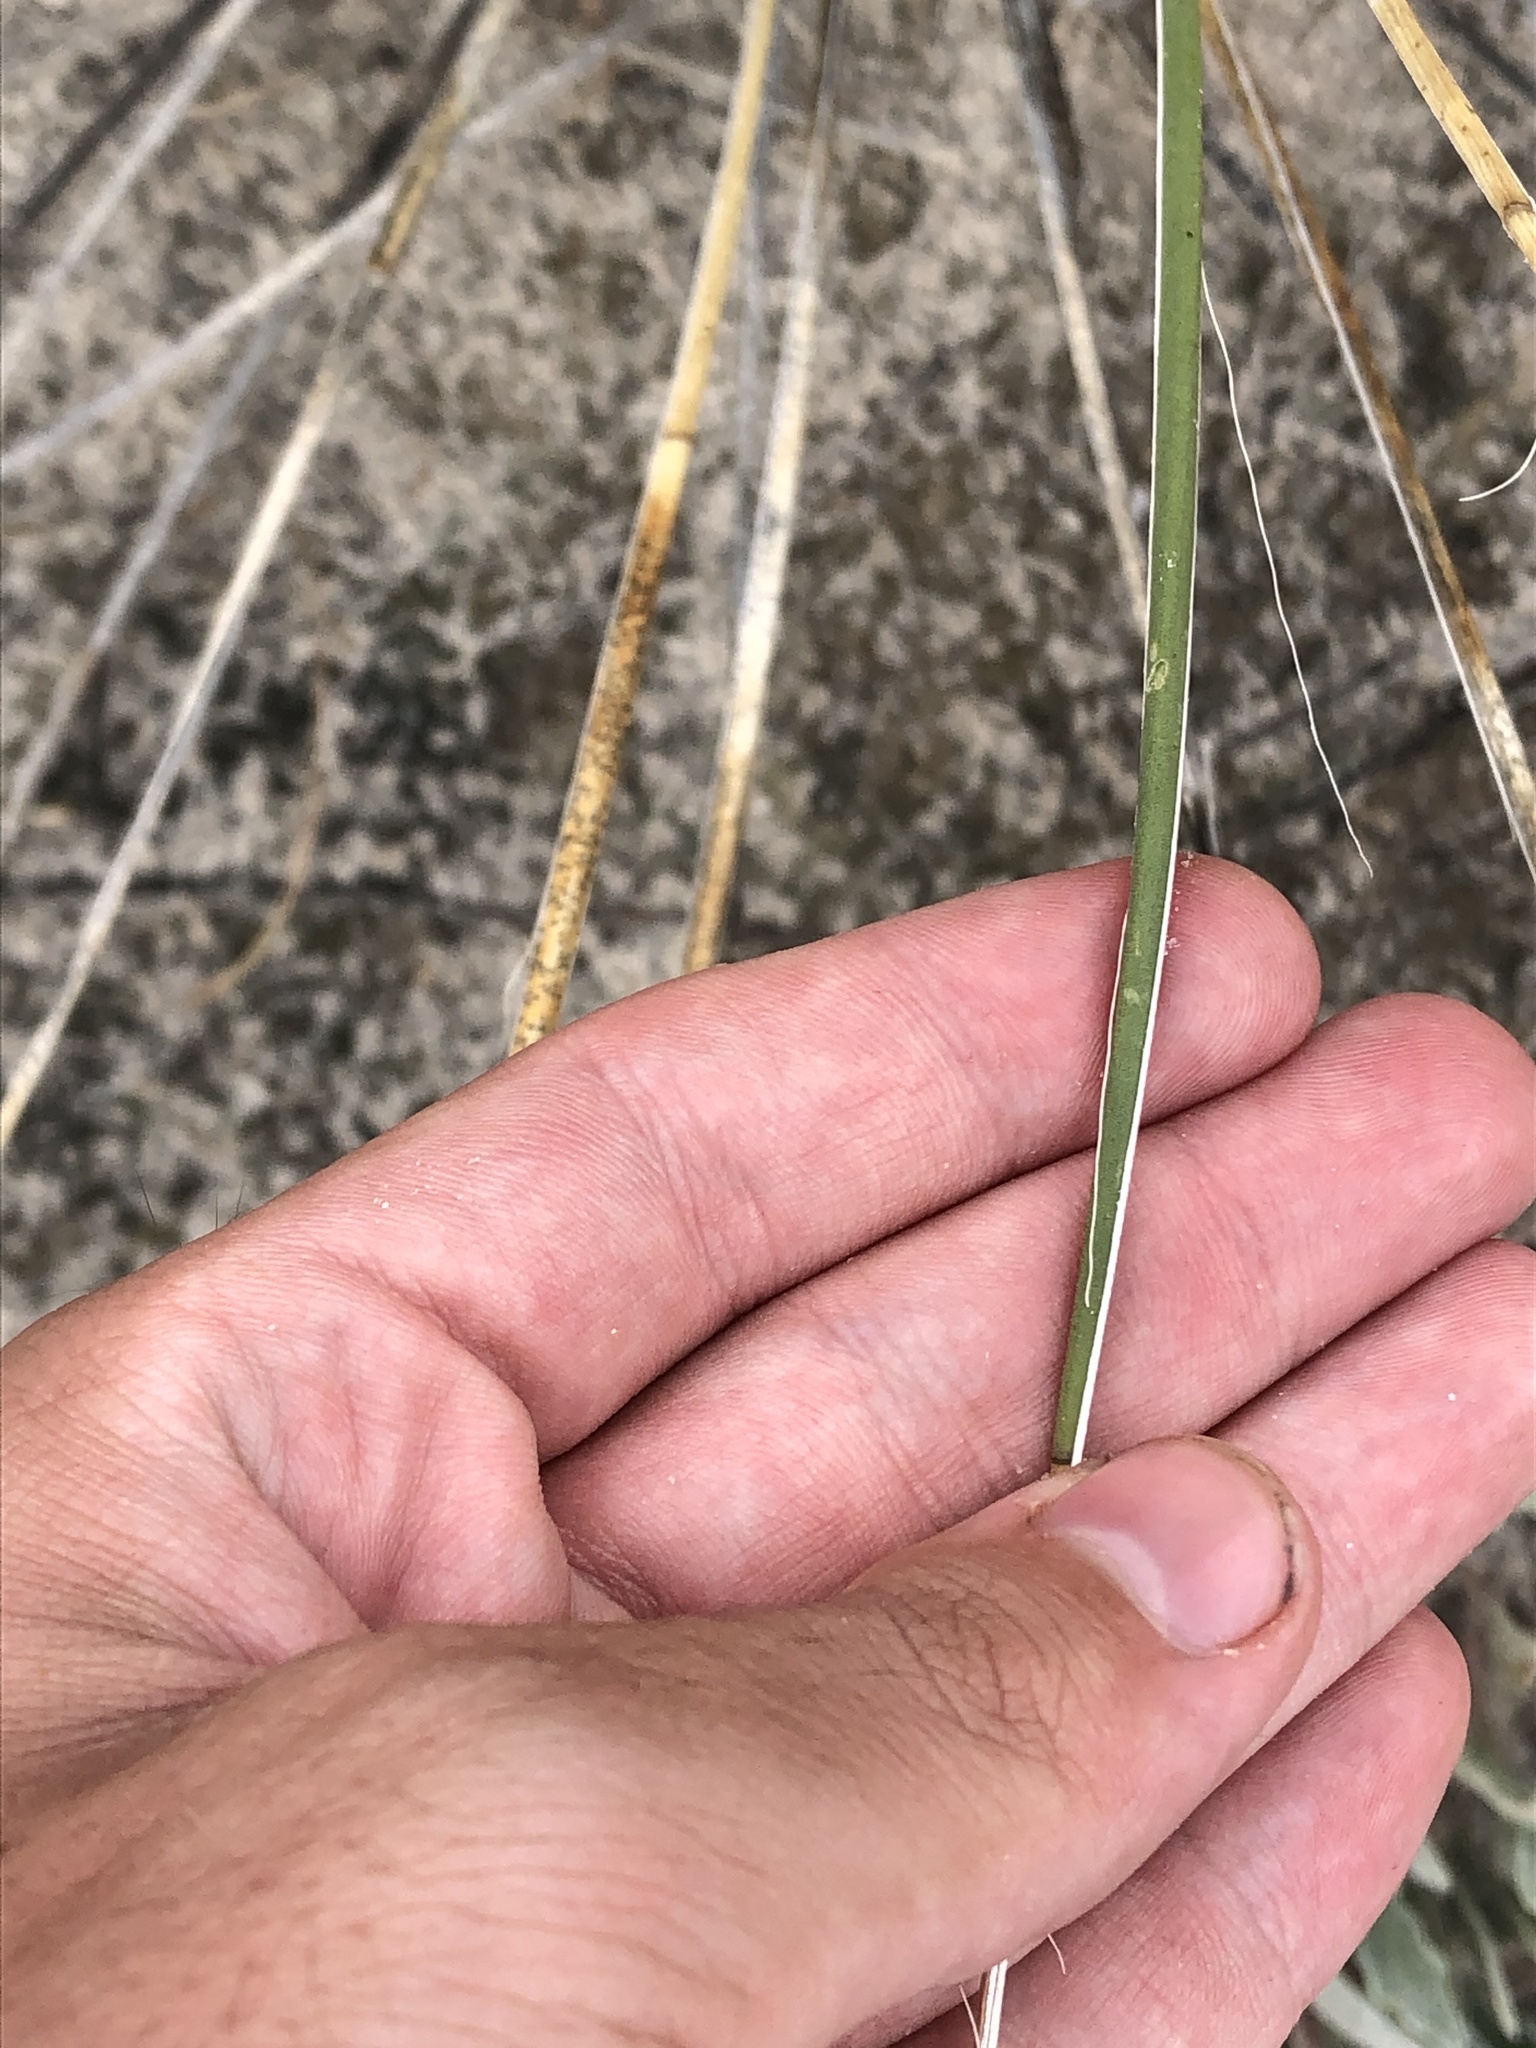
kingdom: Plantae
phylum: Tracheophyta
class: Liliopsida
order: Asparagales
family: Asparagaceae
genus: Yucca
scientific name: Yucca elata
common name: Palmella
